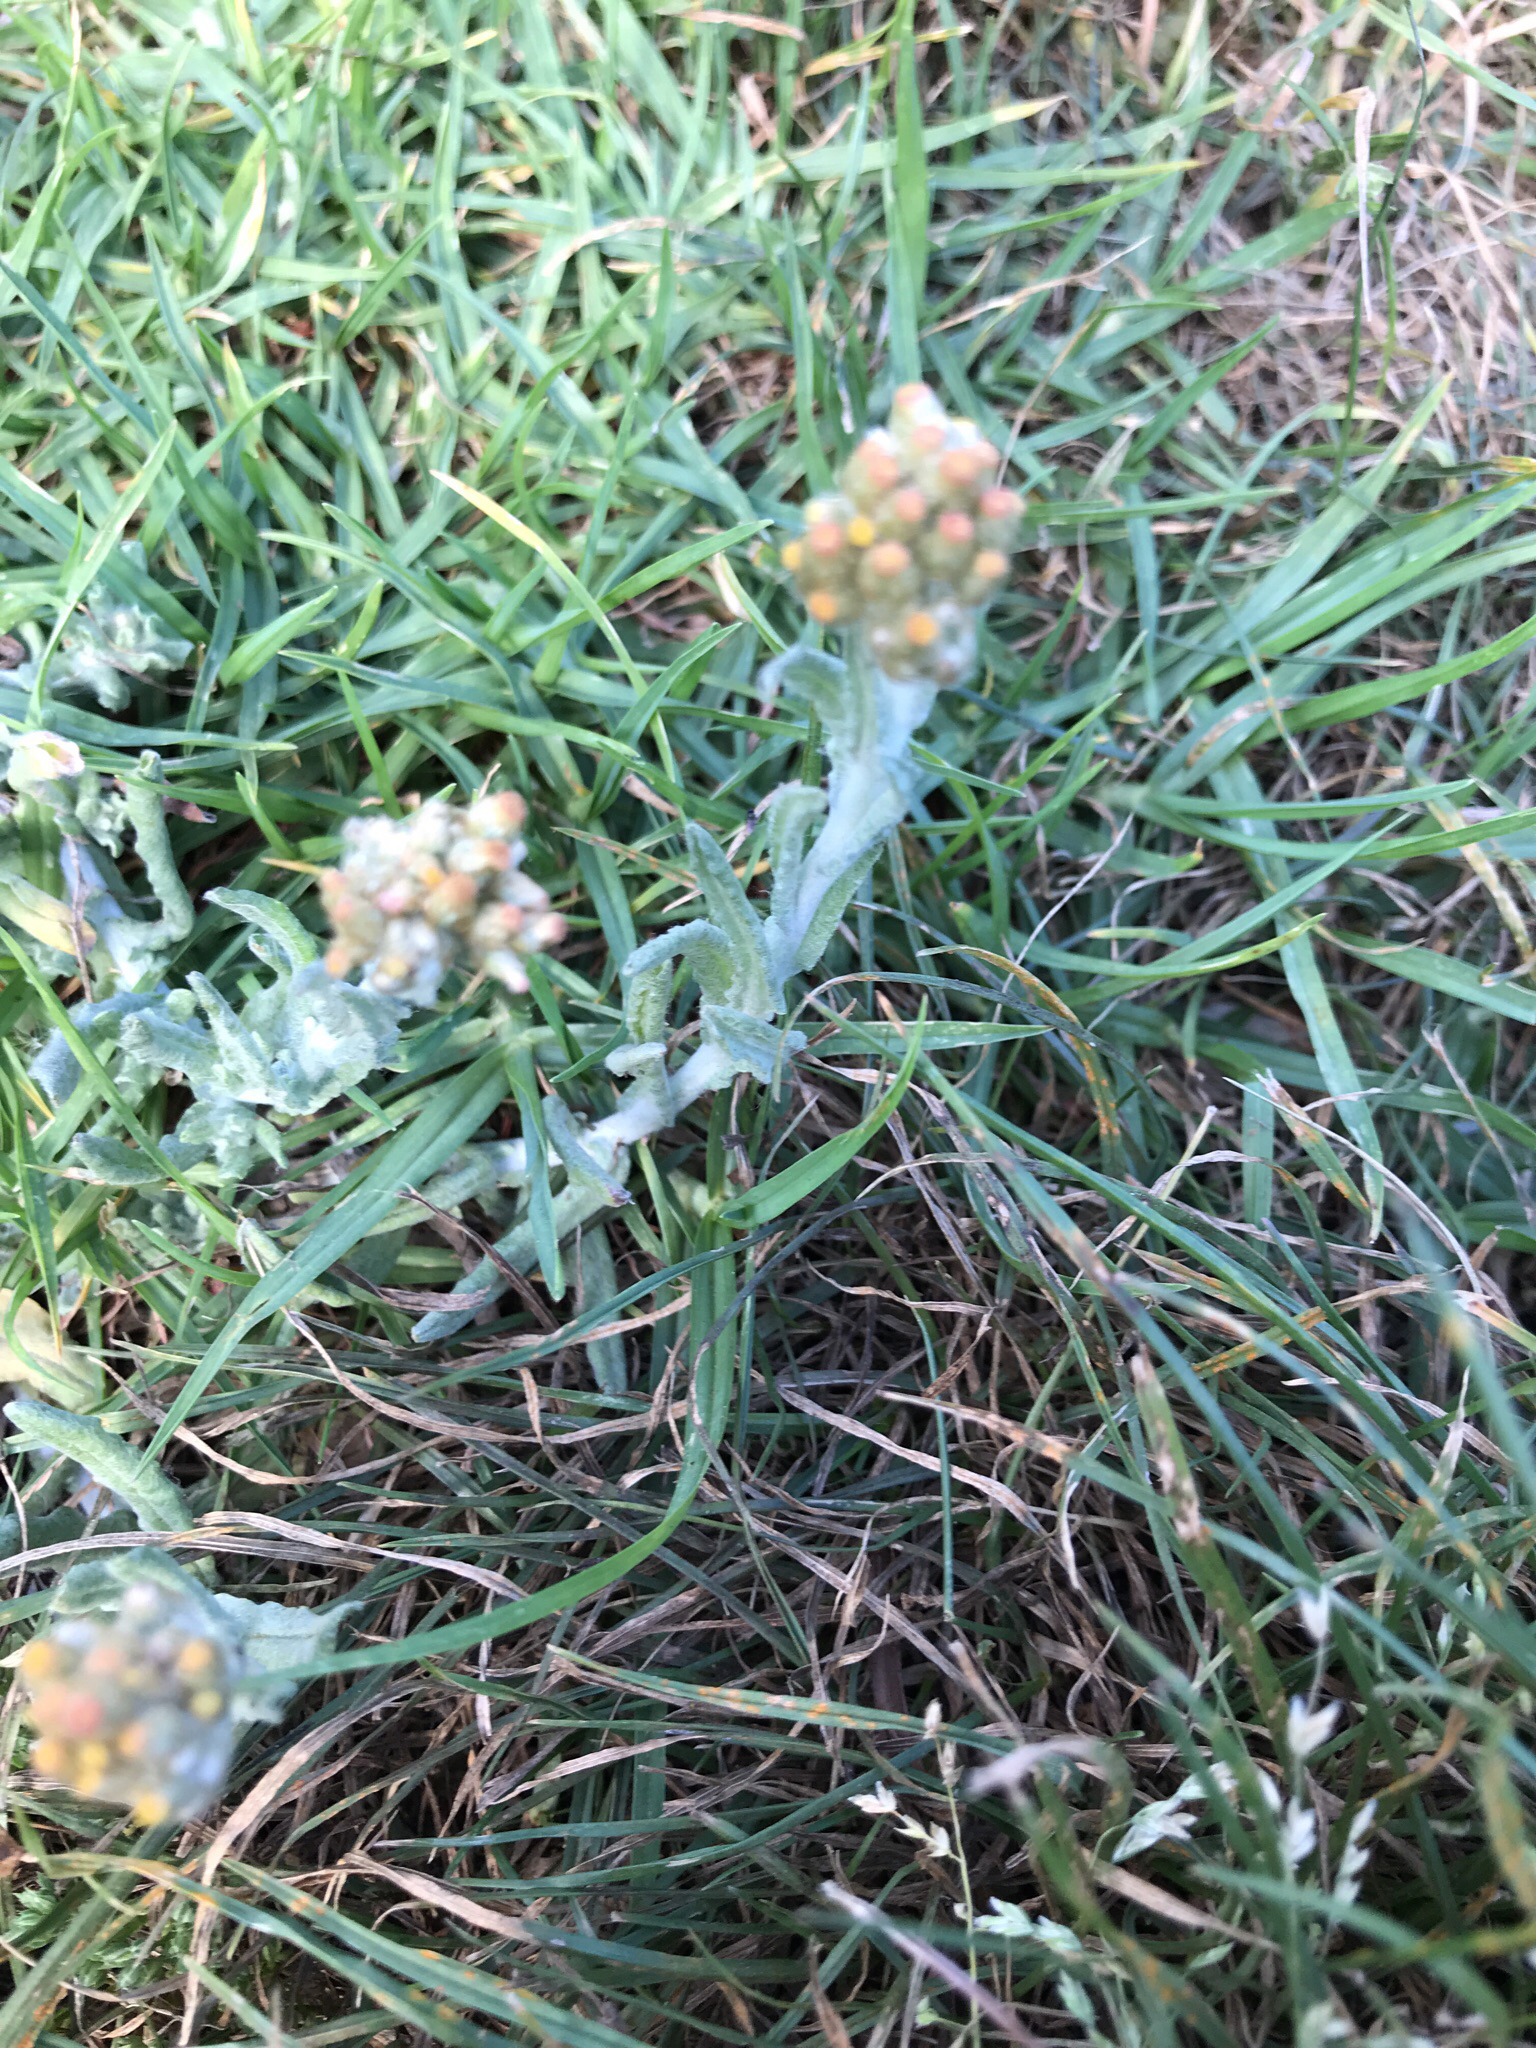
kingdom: Plantae
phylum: Tracheophyta
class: Magnoliopsida
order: Asterales
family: Asteraceae
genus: Helichrysum
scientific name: Helichrysum luteoalbum
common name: Daisy
